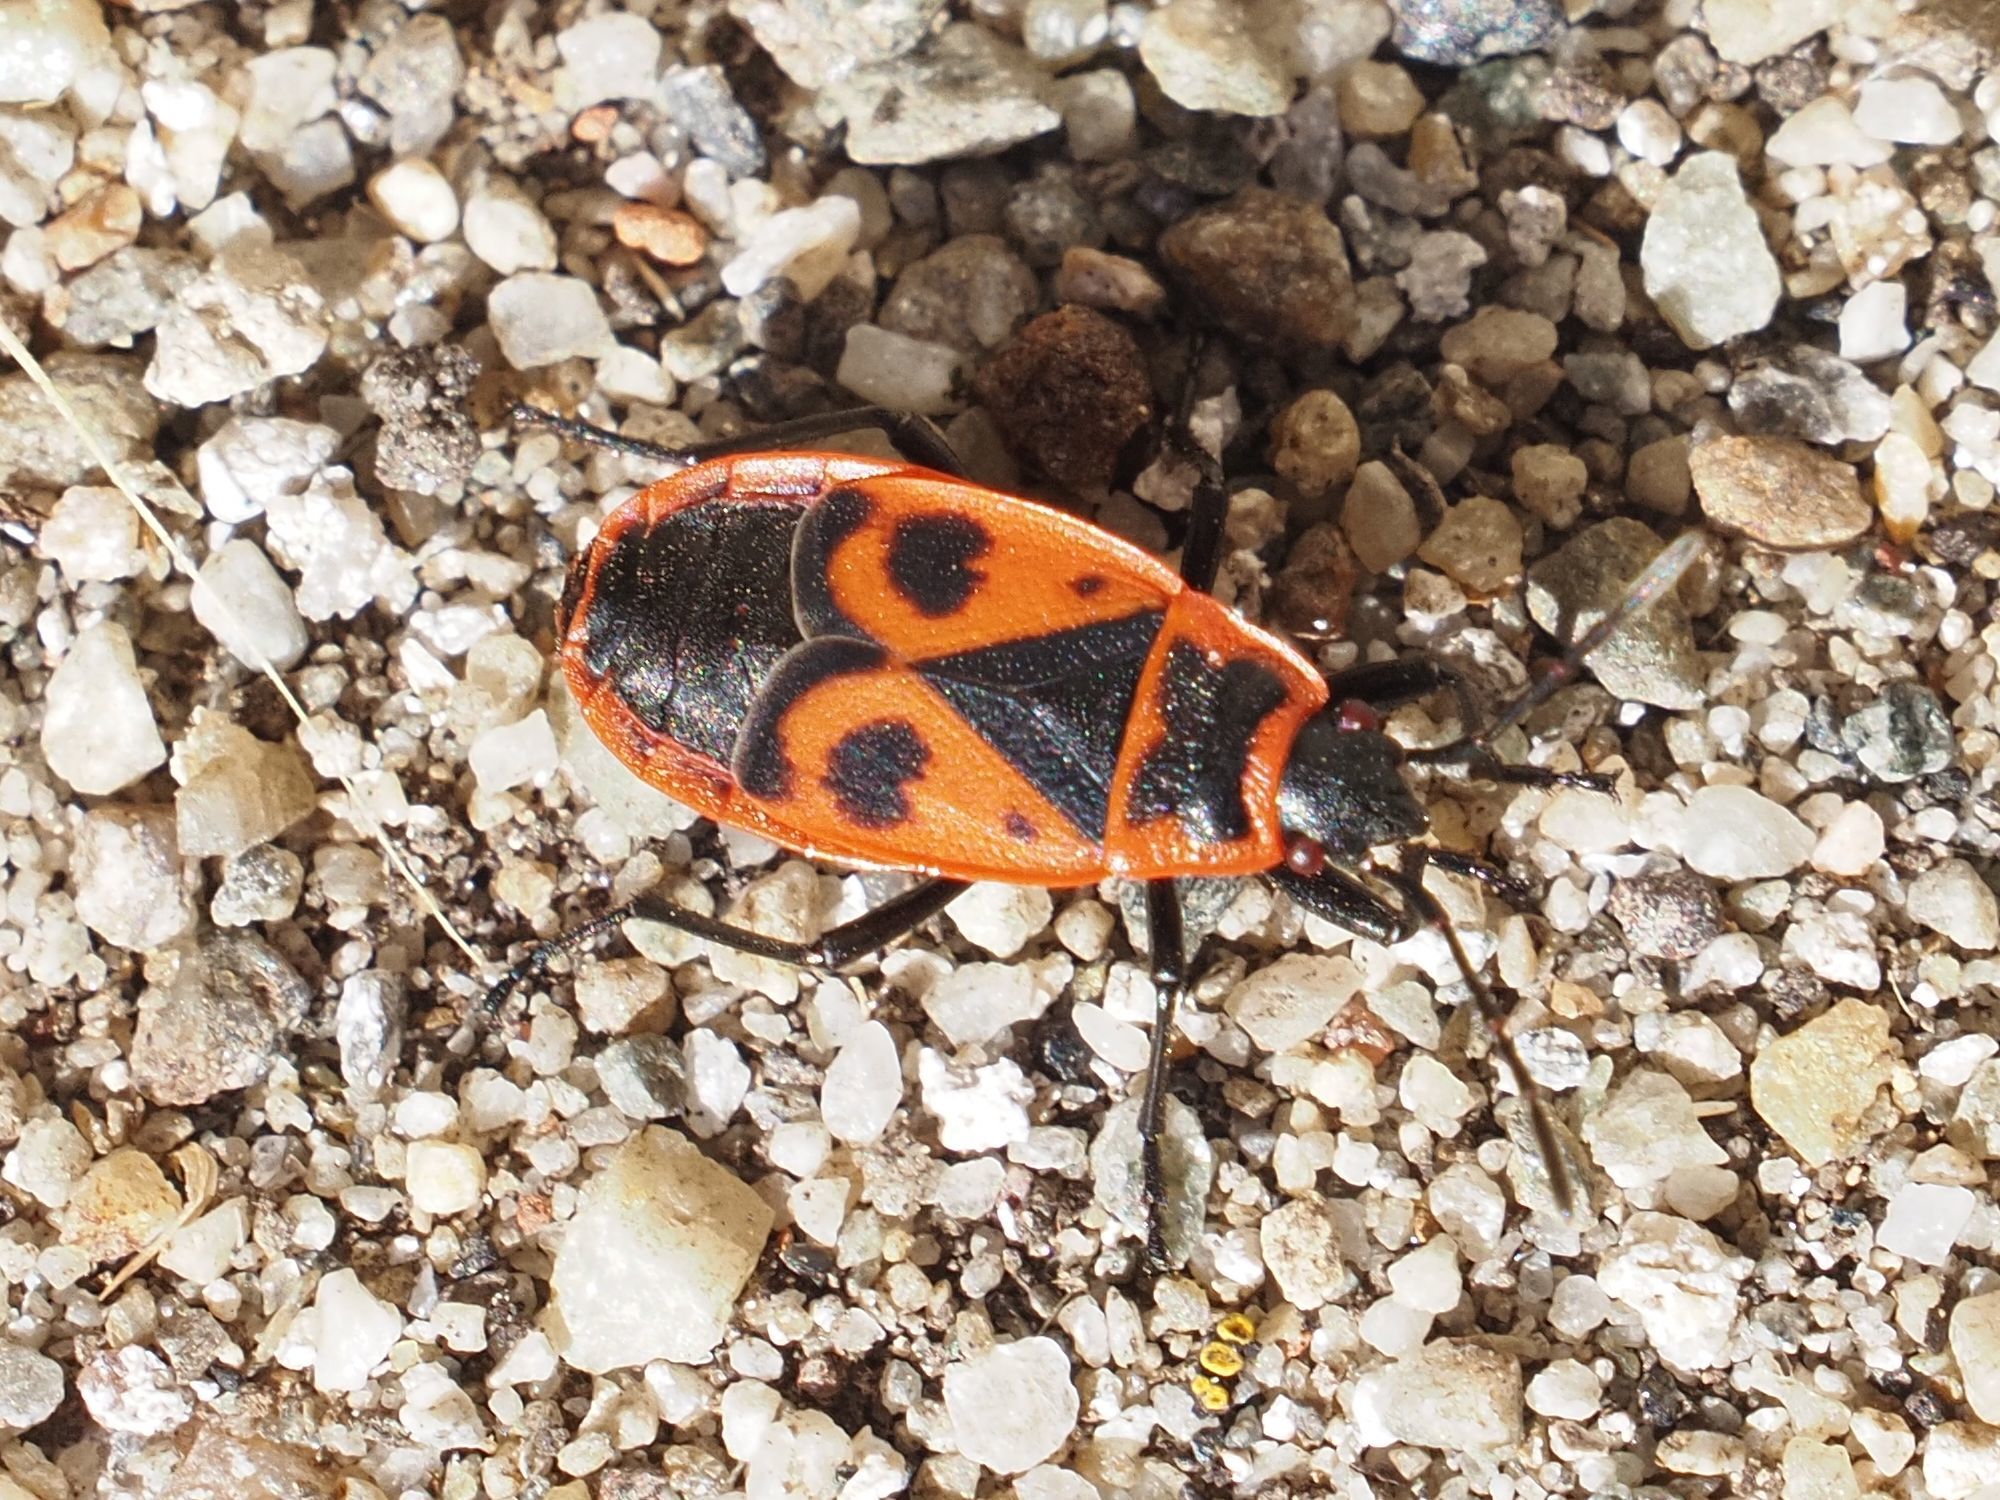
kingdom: Animalia
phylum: Arthropoda
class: Insecta
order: Hemiptera
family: Pyrrhocoridae
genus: Pyrrhocoris
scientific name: Pyrrhocoris apterus
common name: Firebug
